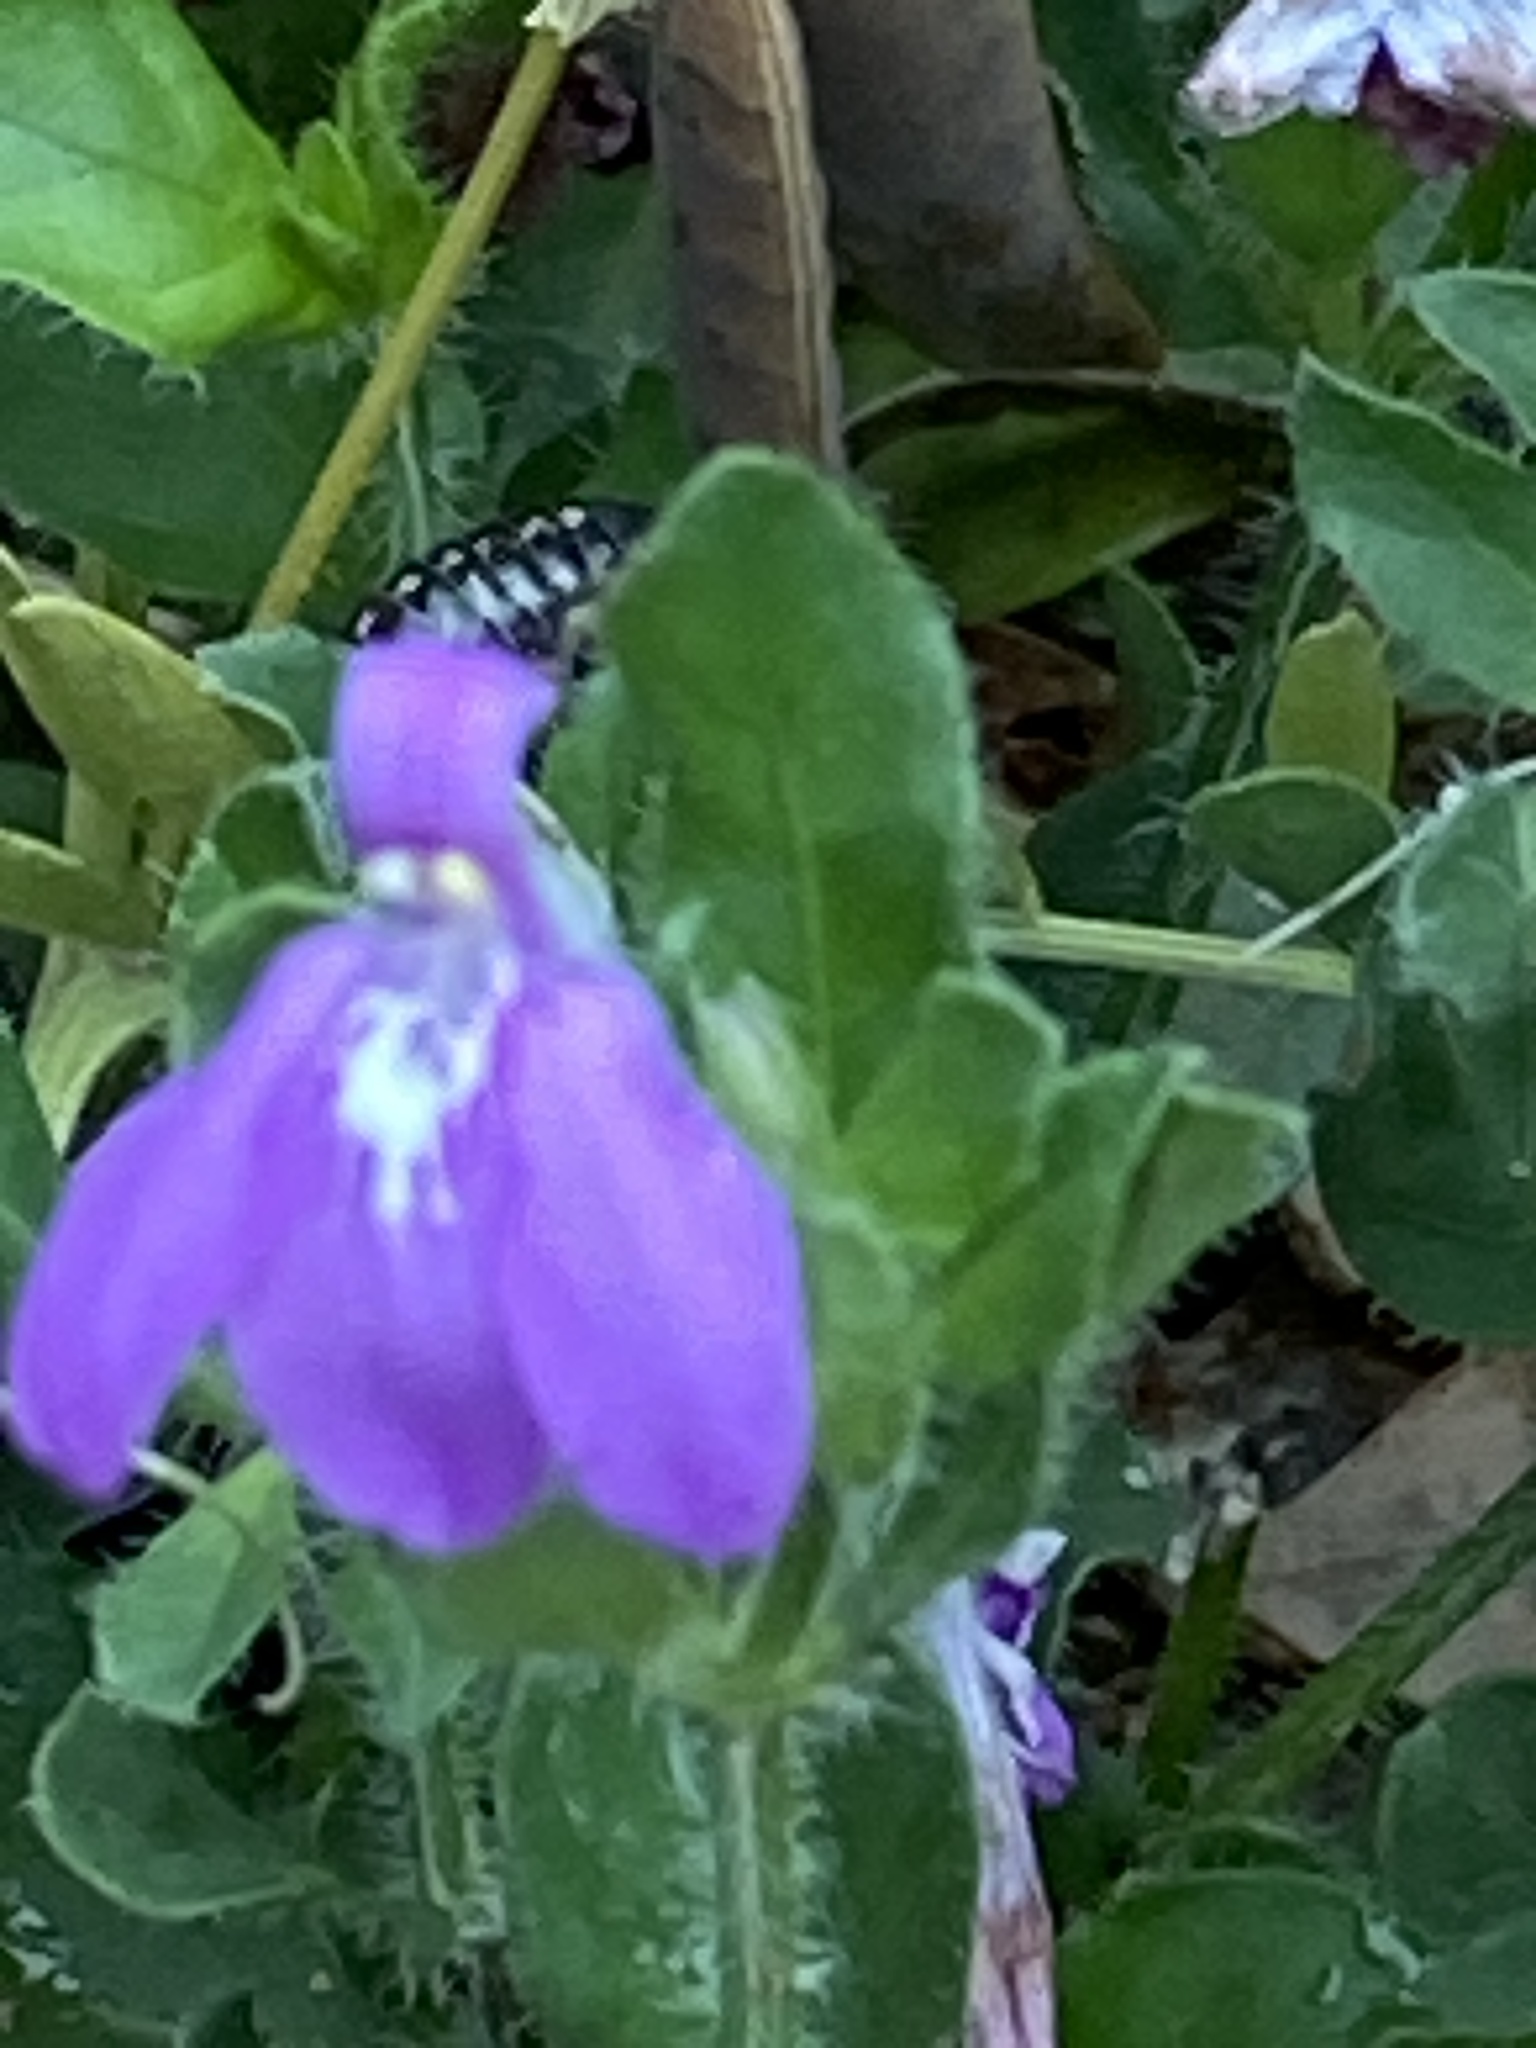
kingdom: Plantae
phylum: Tracheophyta
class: Magnoliopsida
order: Lamiales
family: Acanthaceae
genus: Justicia
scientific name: Justicia pilosella
